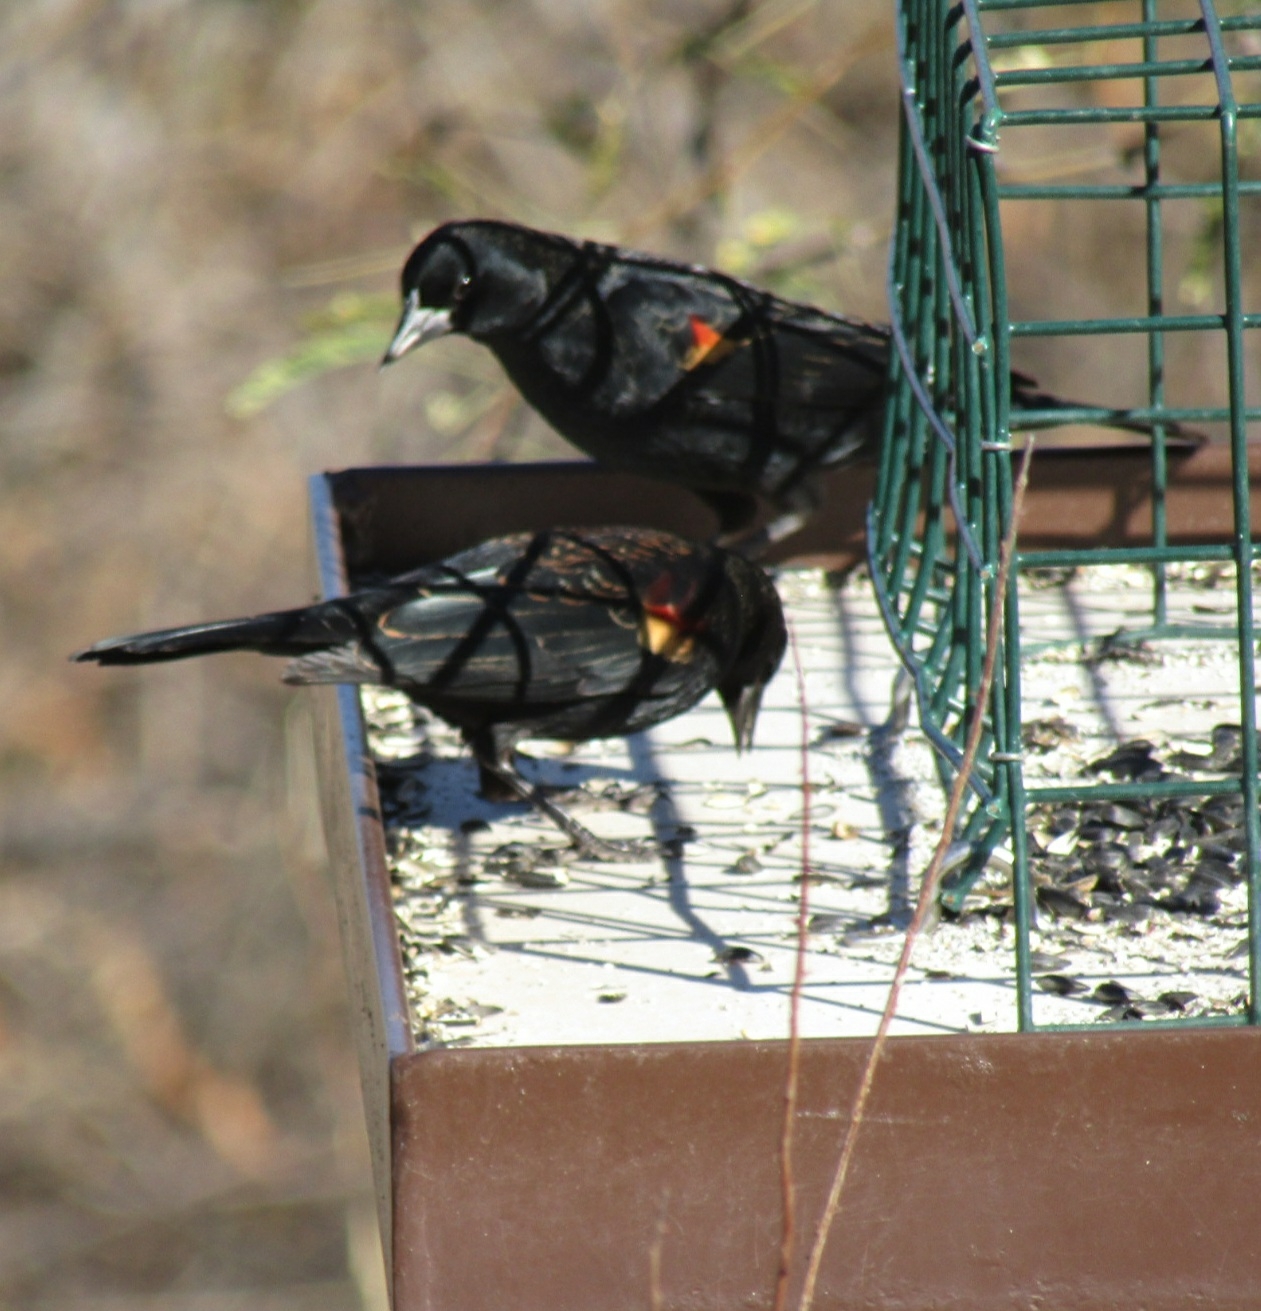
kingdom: Animalia
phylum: Chordata
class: Aves
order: Passeriformes
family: Icteridae
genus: Agelaius
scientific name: Agelaius phoeniceus
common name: Red-winged blackbird
